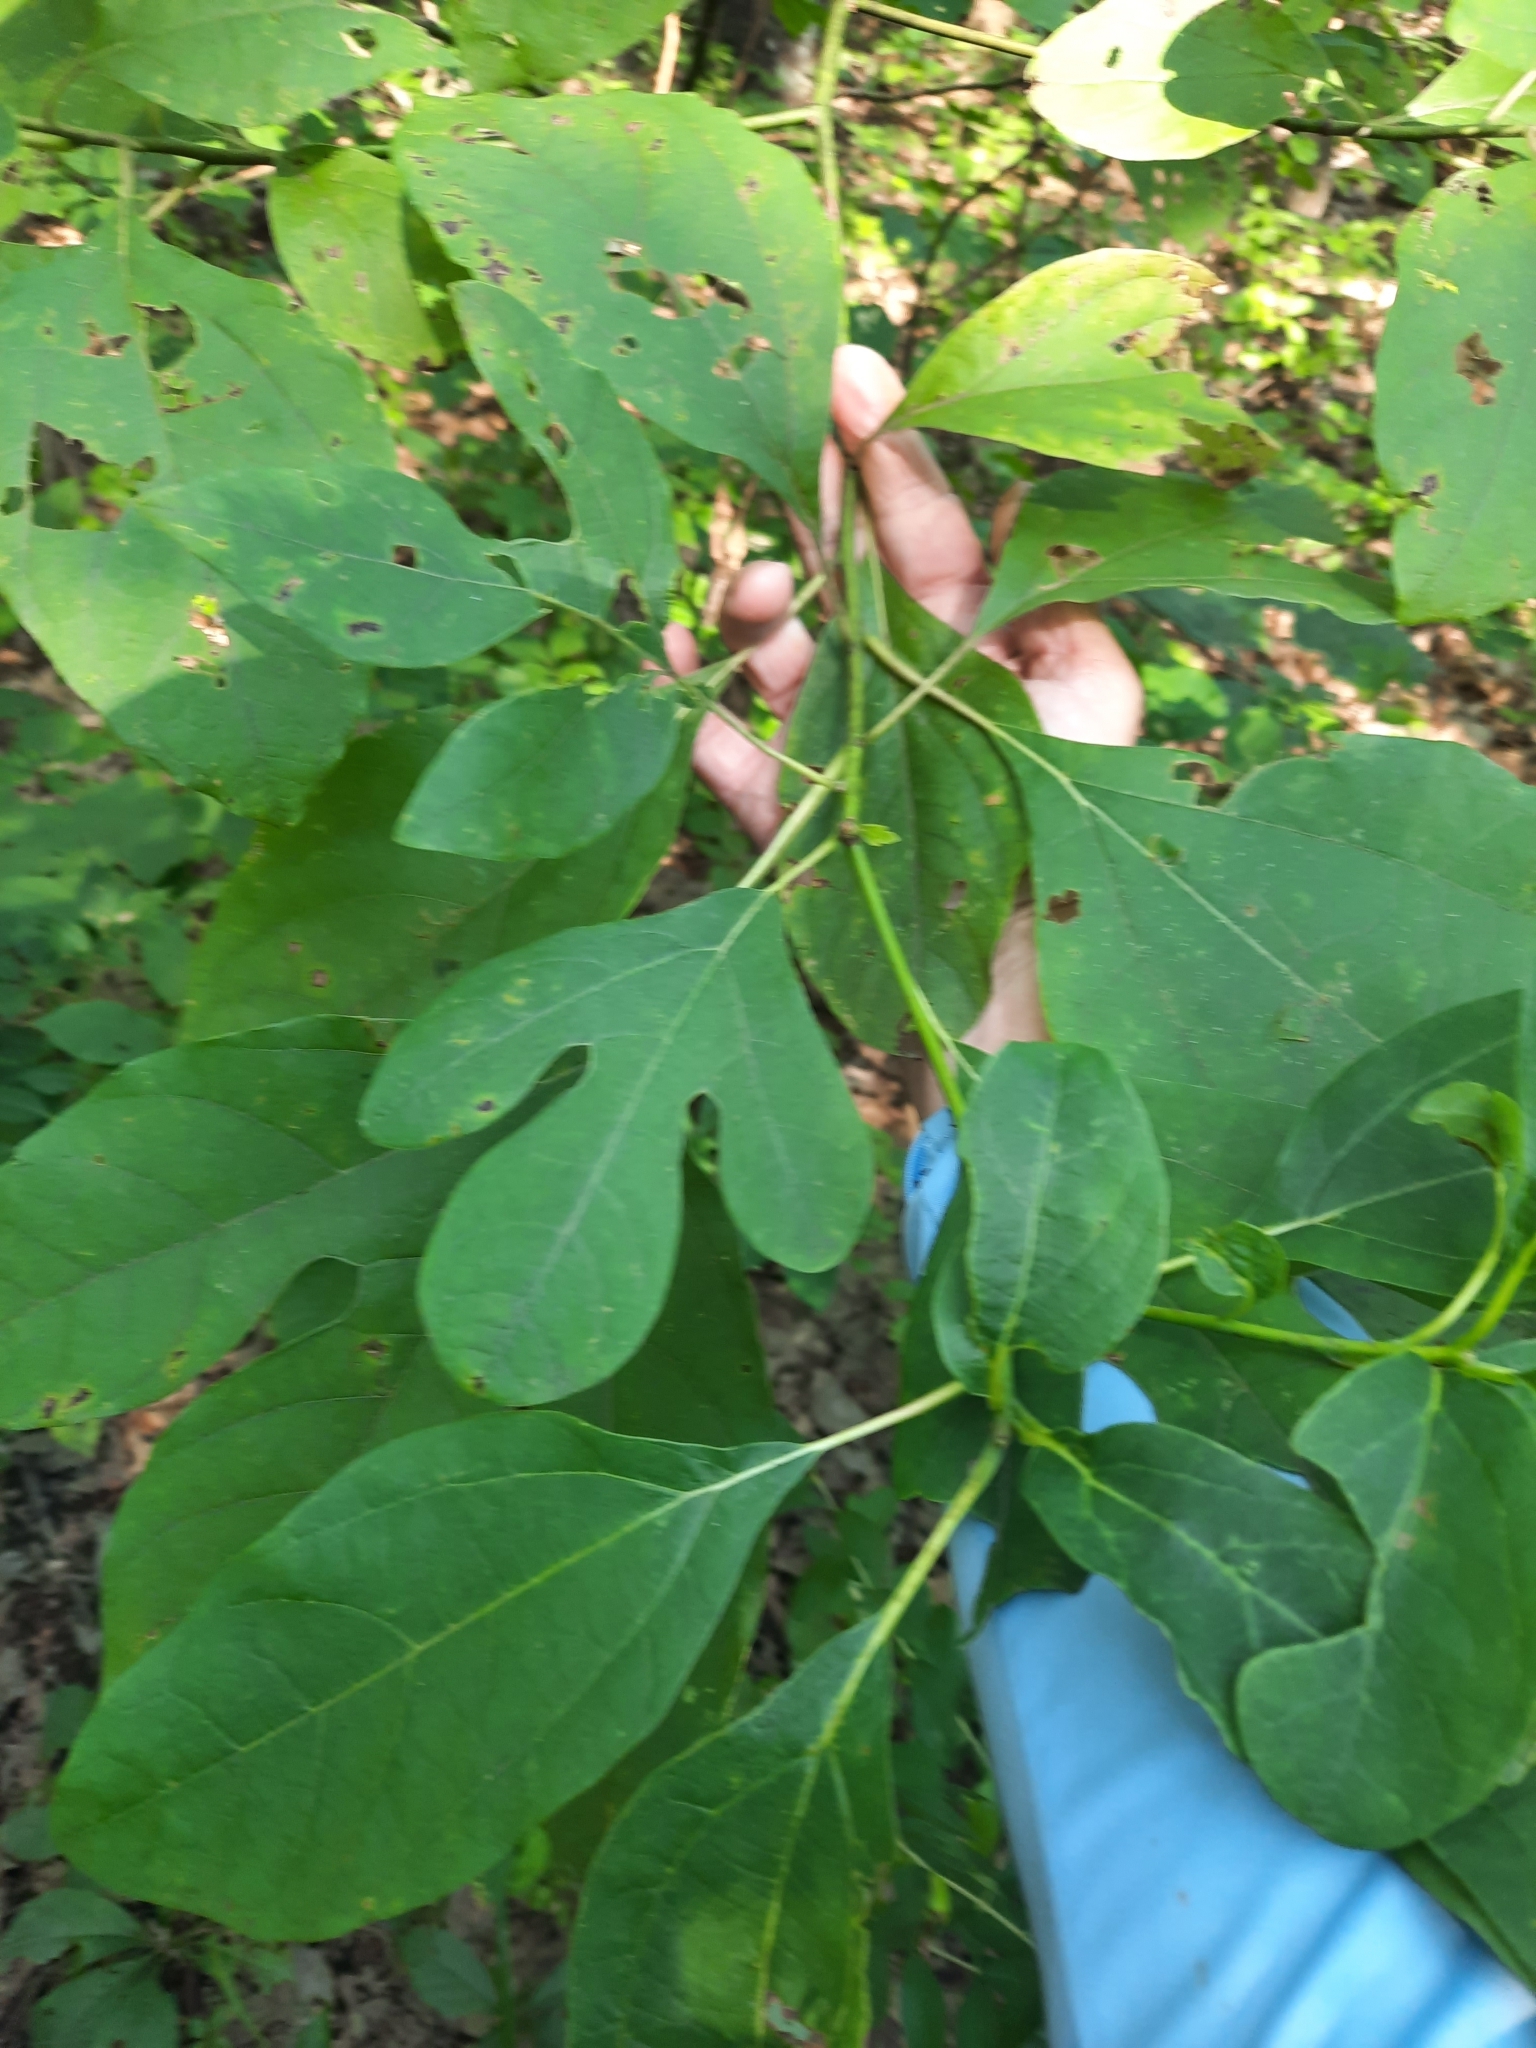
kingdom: Plantae
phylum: Tracheophyta
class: Magnoliopsida
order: Laurales
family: Lauraceae
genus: Sassafras
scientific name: Sassafras albidum
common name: Sassafras
